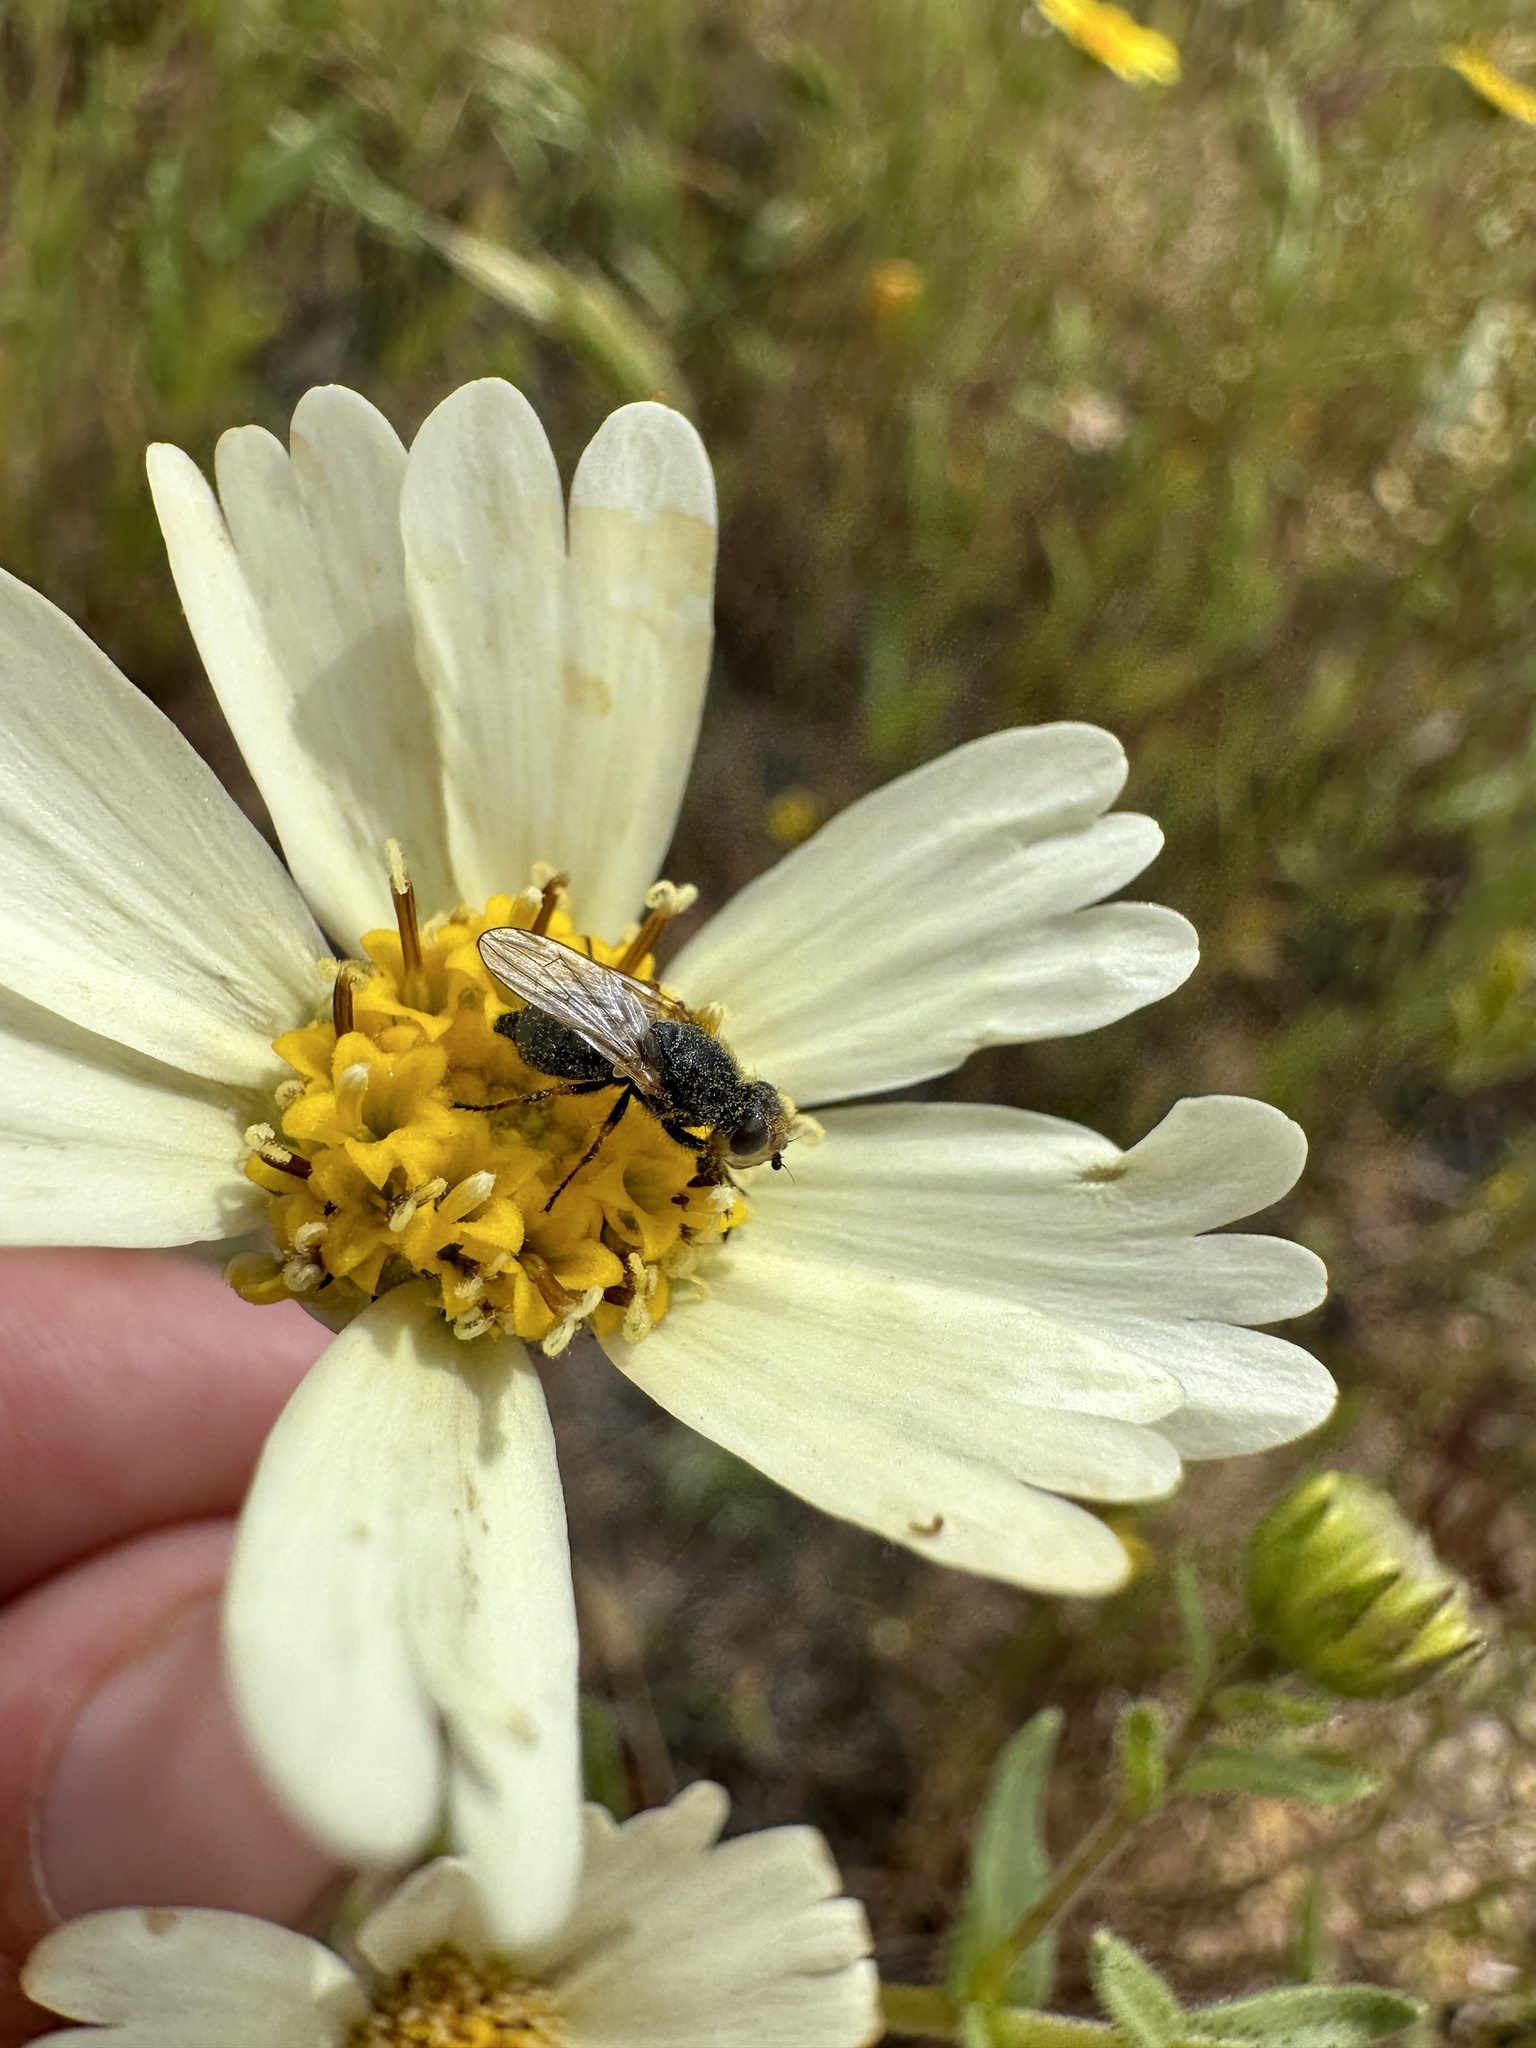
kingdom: Animalia
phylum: Arthropoda
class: Insecta
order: Diptera
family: Ulidiidae
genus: Tetropismenus
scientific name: Tetropismenus hirtus
